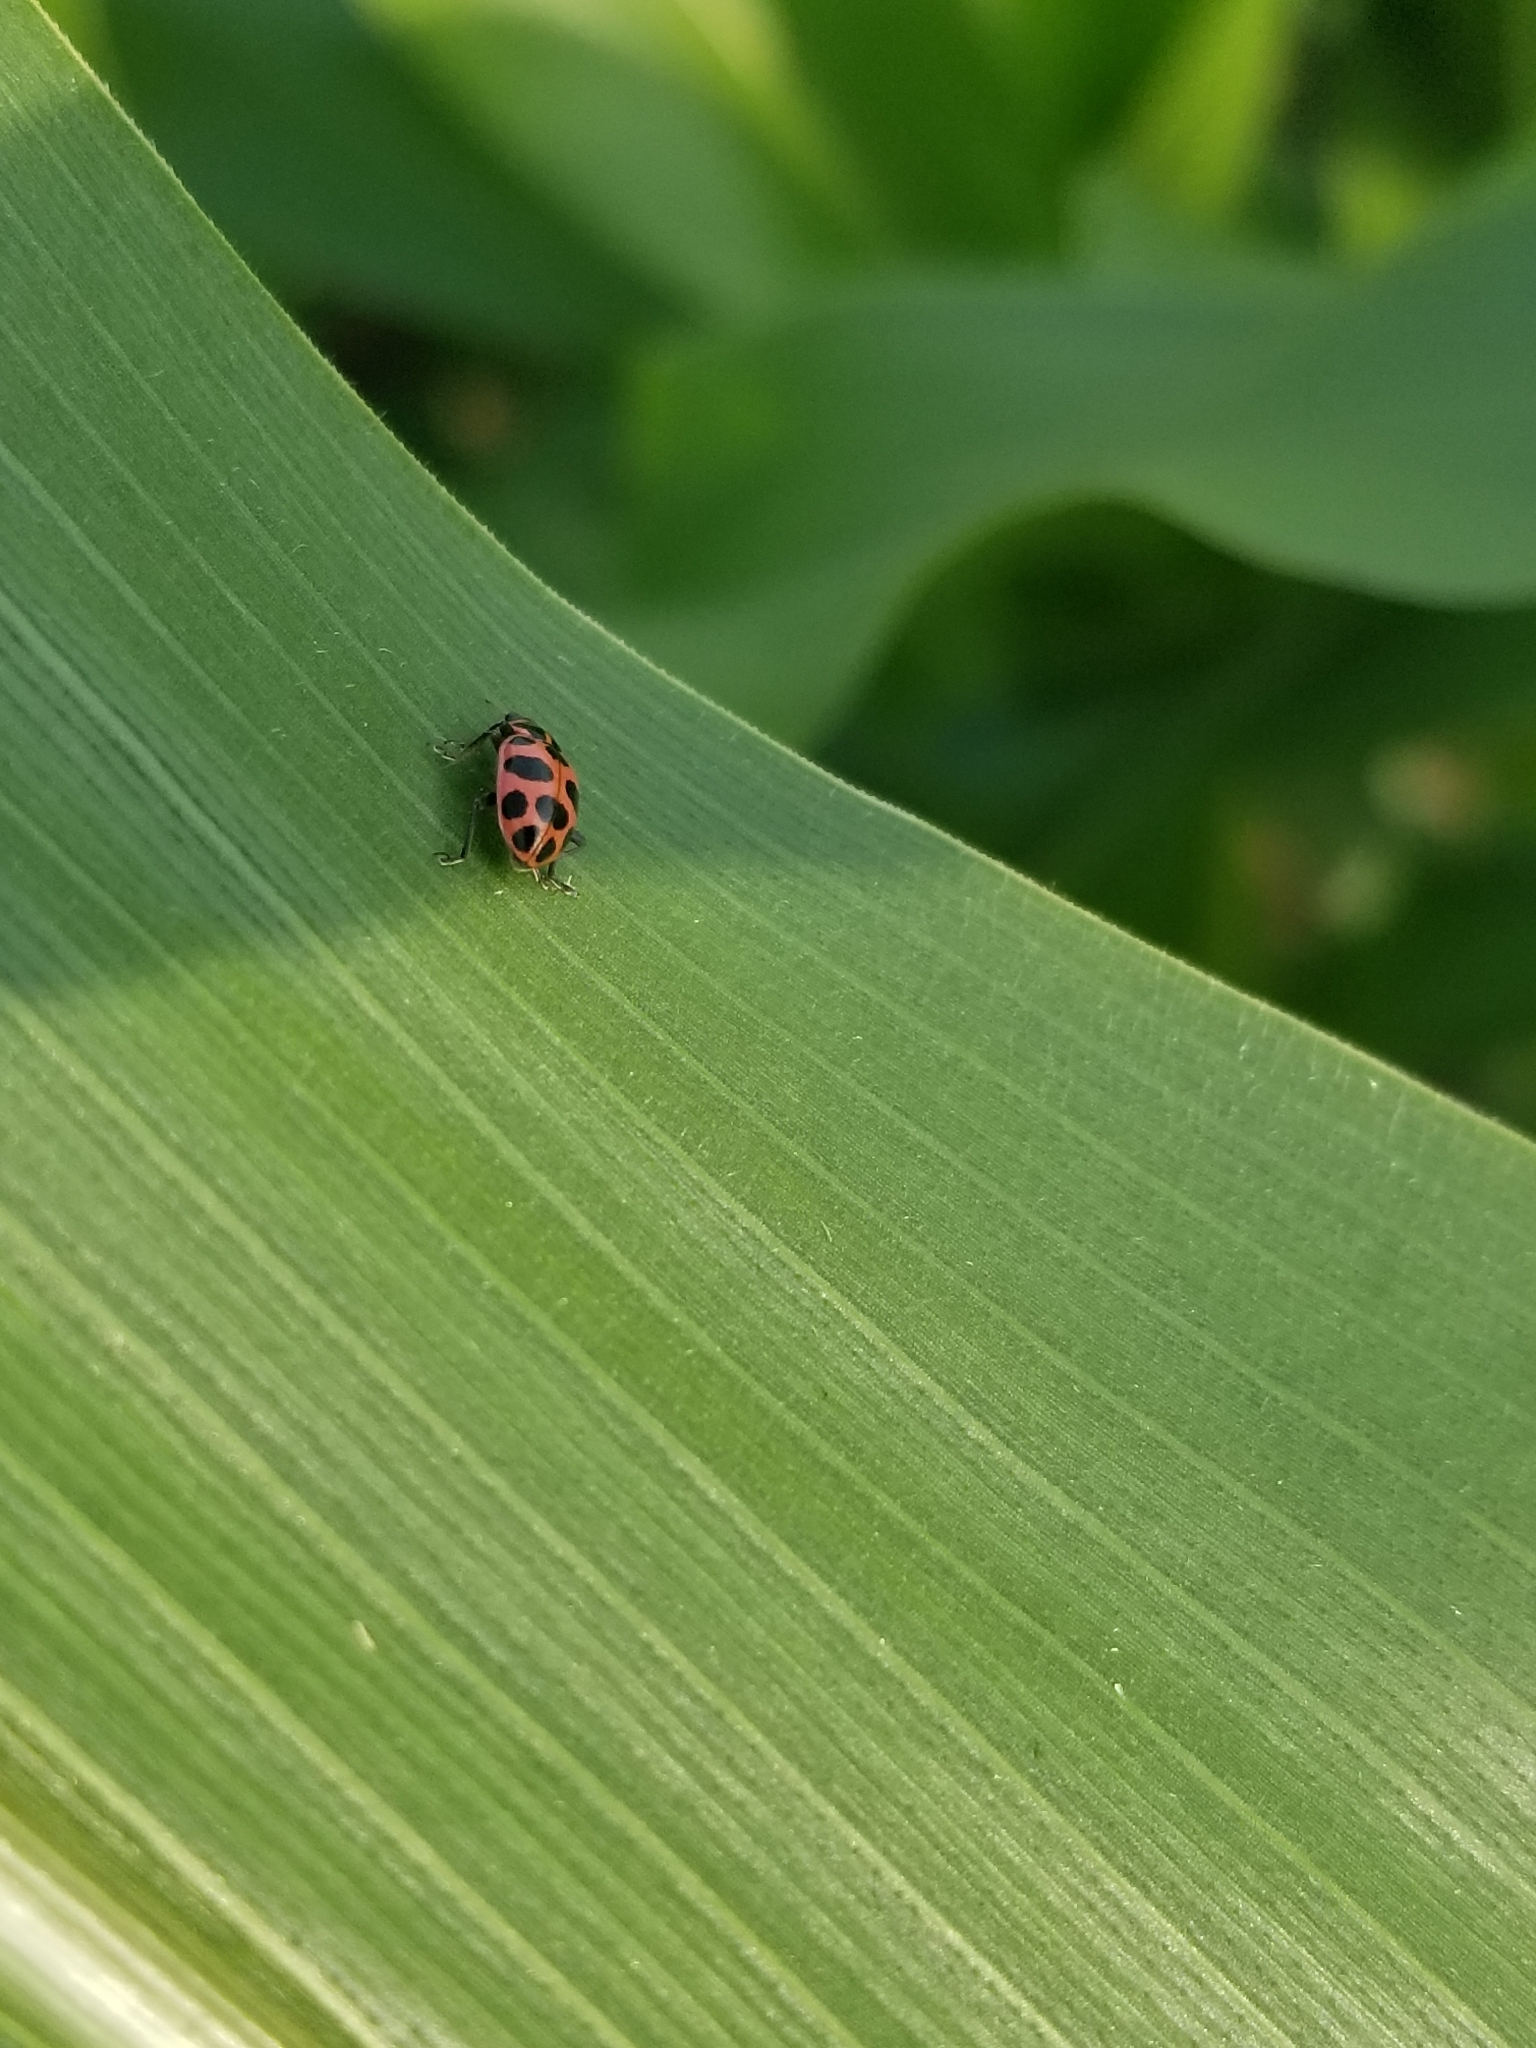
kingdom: Animalia
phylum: Arthropoda
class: Insecta
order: Coleoptera
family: Coccinellidae
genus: Coleomegilla
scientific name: Coleomegilla maculata
